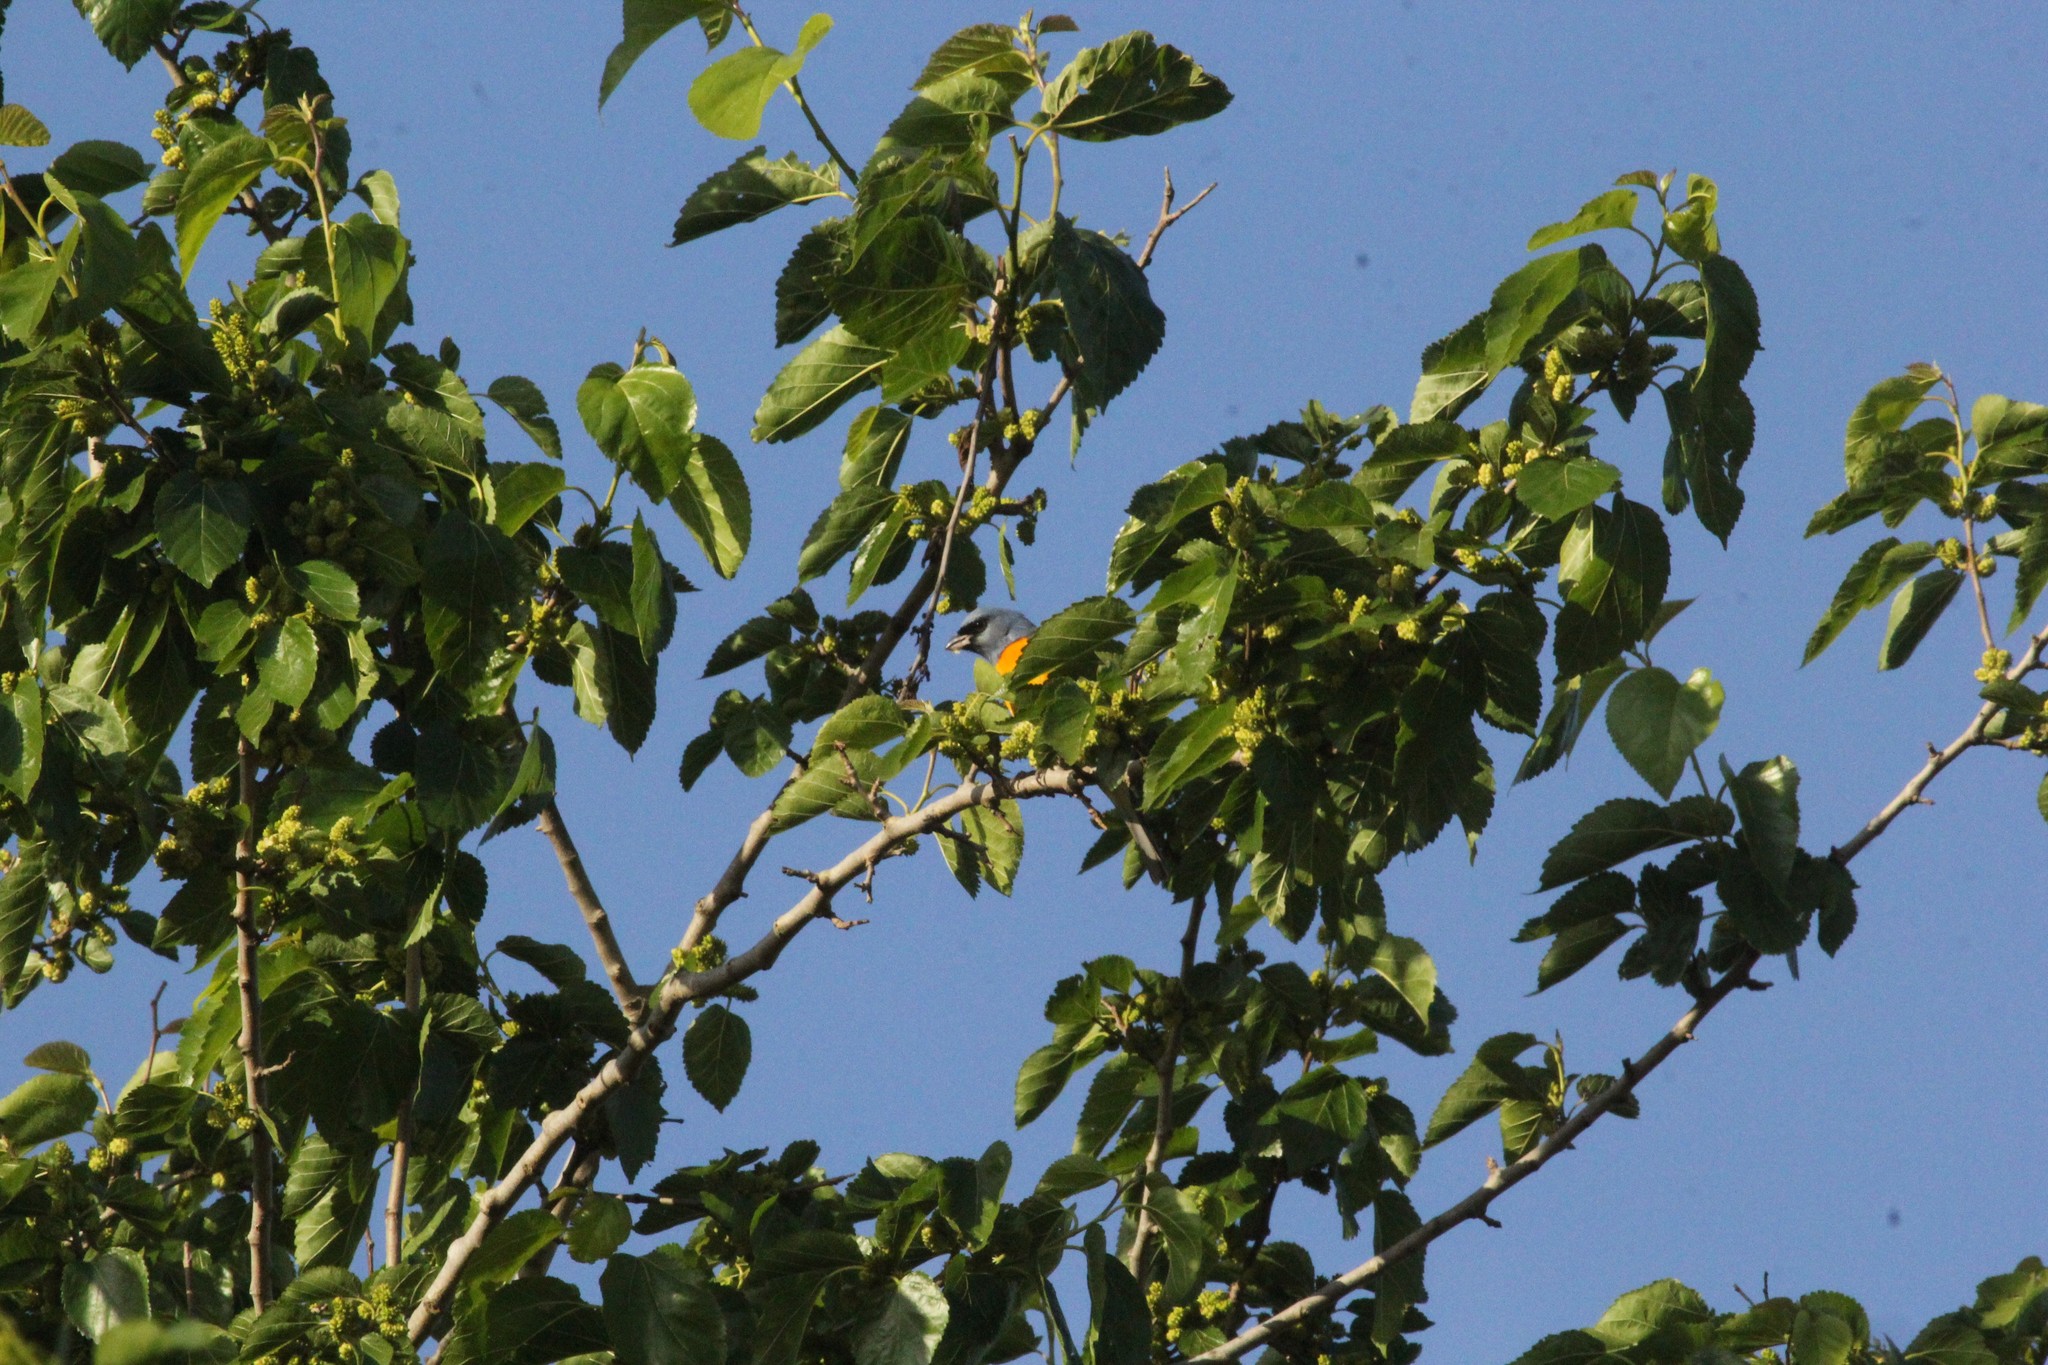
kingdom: Animalia
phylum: Chordata
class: Aves
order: Passeriformes
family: Thraupidae
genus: Rauenia
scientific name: Rauenia bonariensis
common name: Blue-and-yellow tanager
